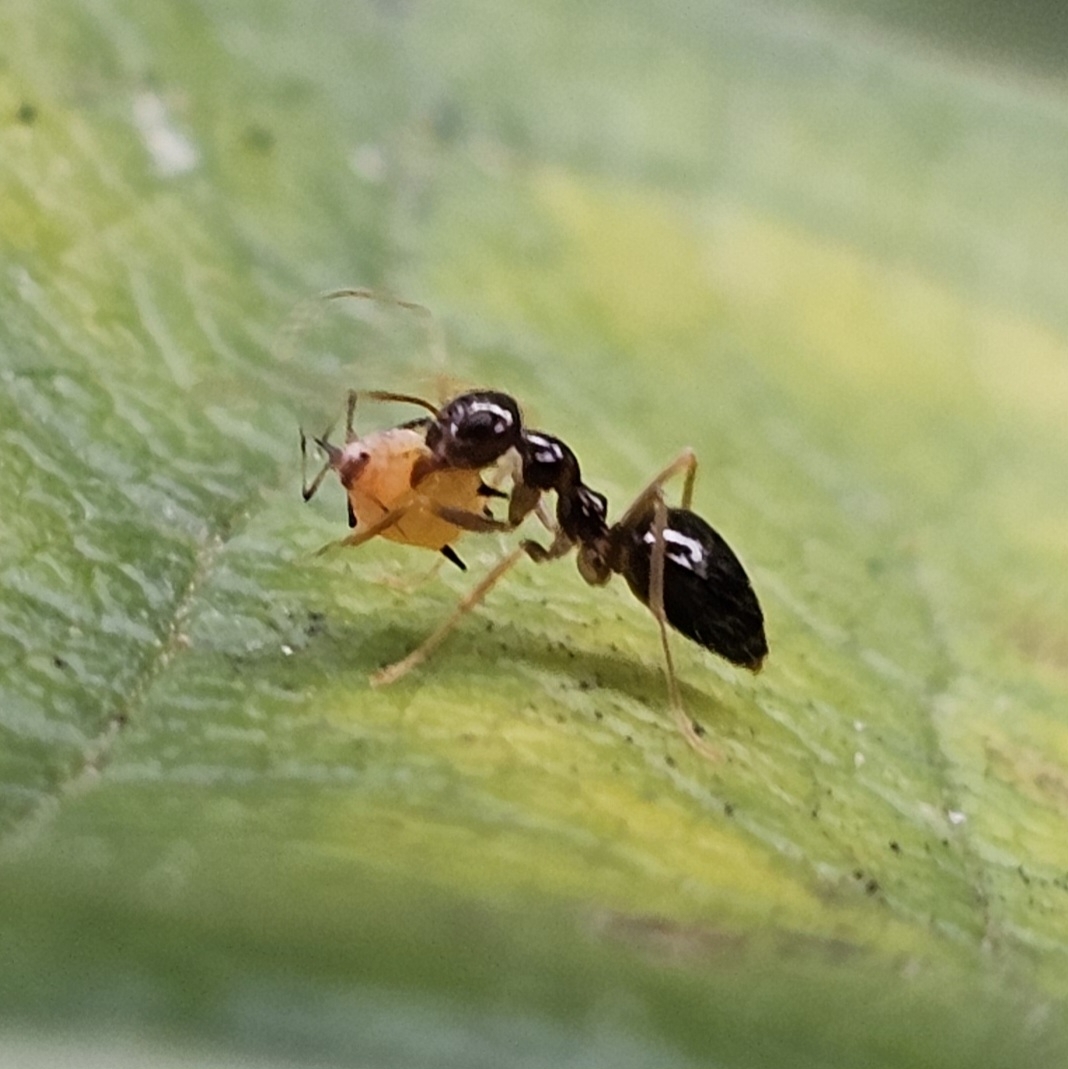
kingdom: Animalia
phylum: Arthropoda
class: Insecta
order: Hymenoptera
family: Formicidae
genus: Prenolepis
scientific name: Prenolepis imparis
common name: Small honey ant
